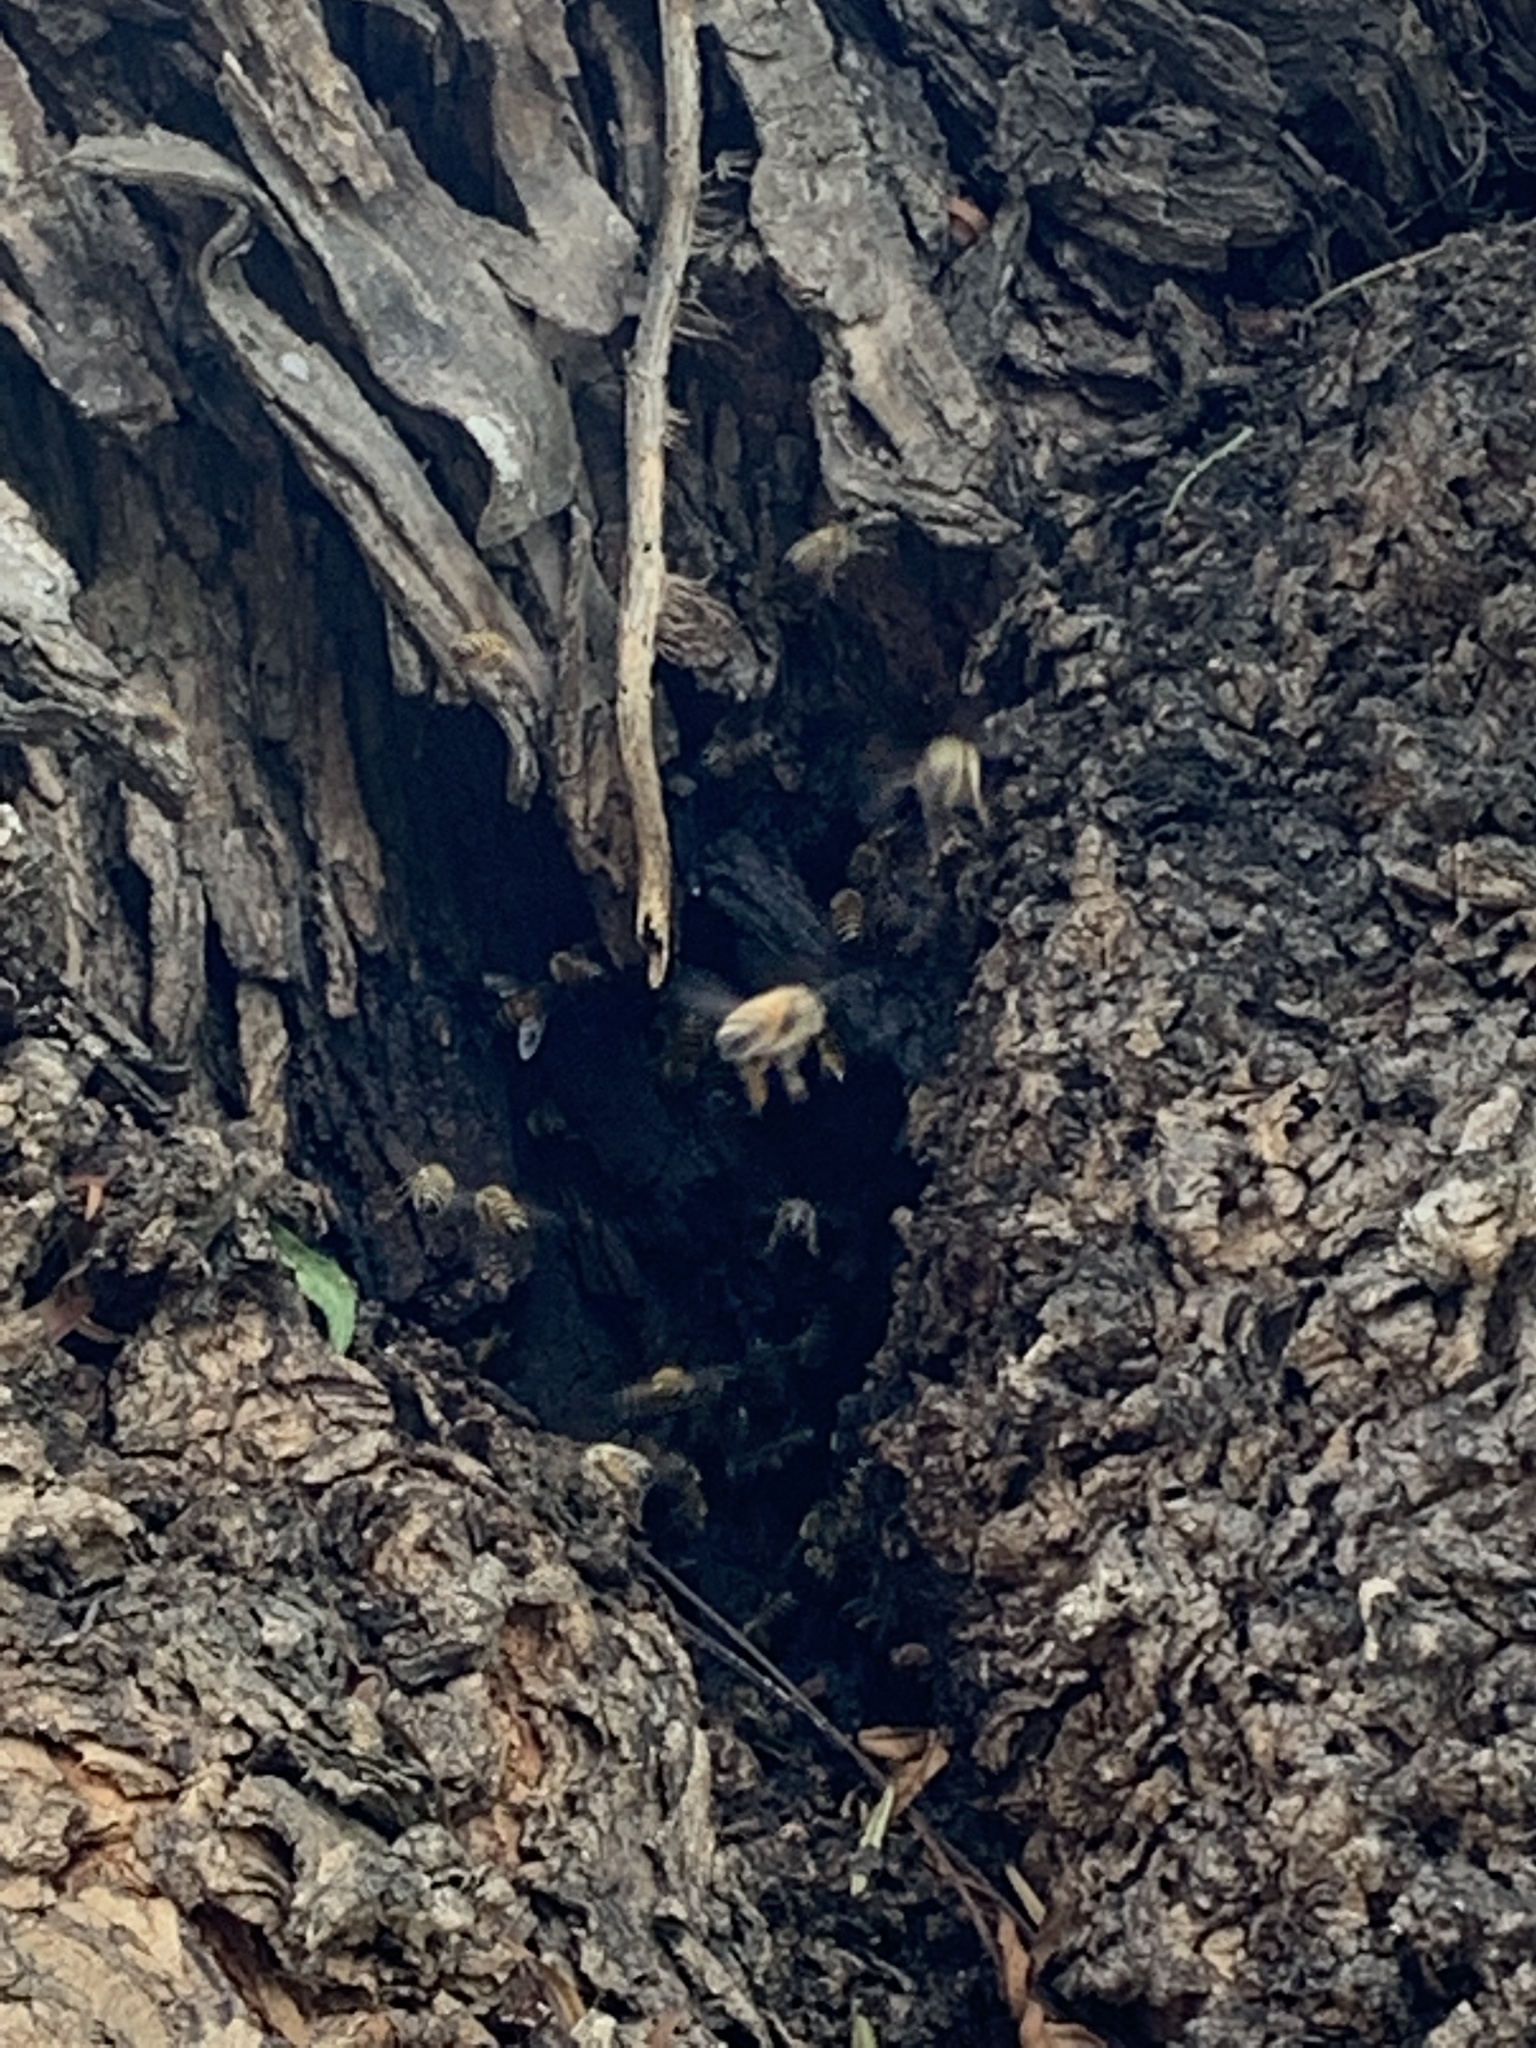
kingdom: Animalia
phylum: Arthropoda
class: Insecta
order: Hymenoptera
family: Apidae
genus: Apis
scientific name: Apis mellifera
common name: Honey bee
